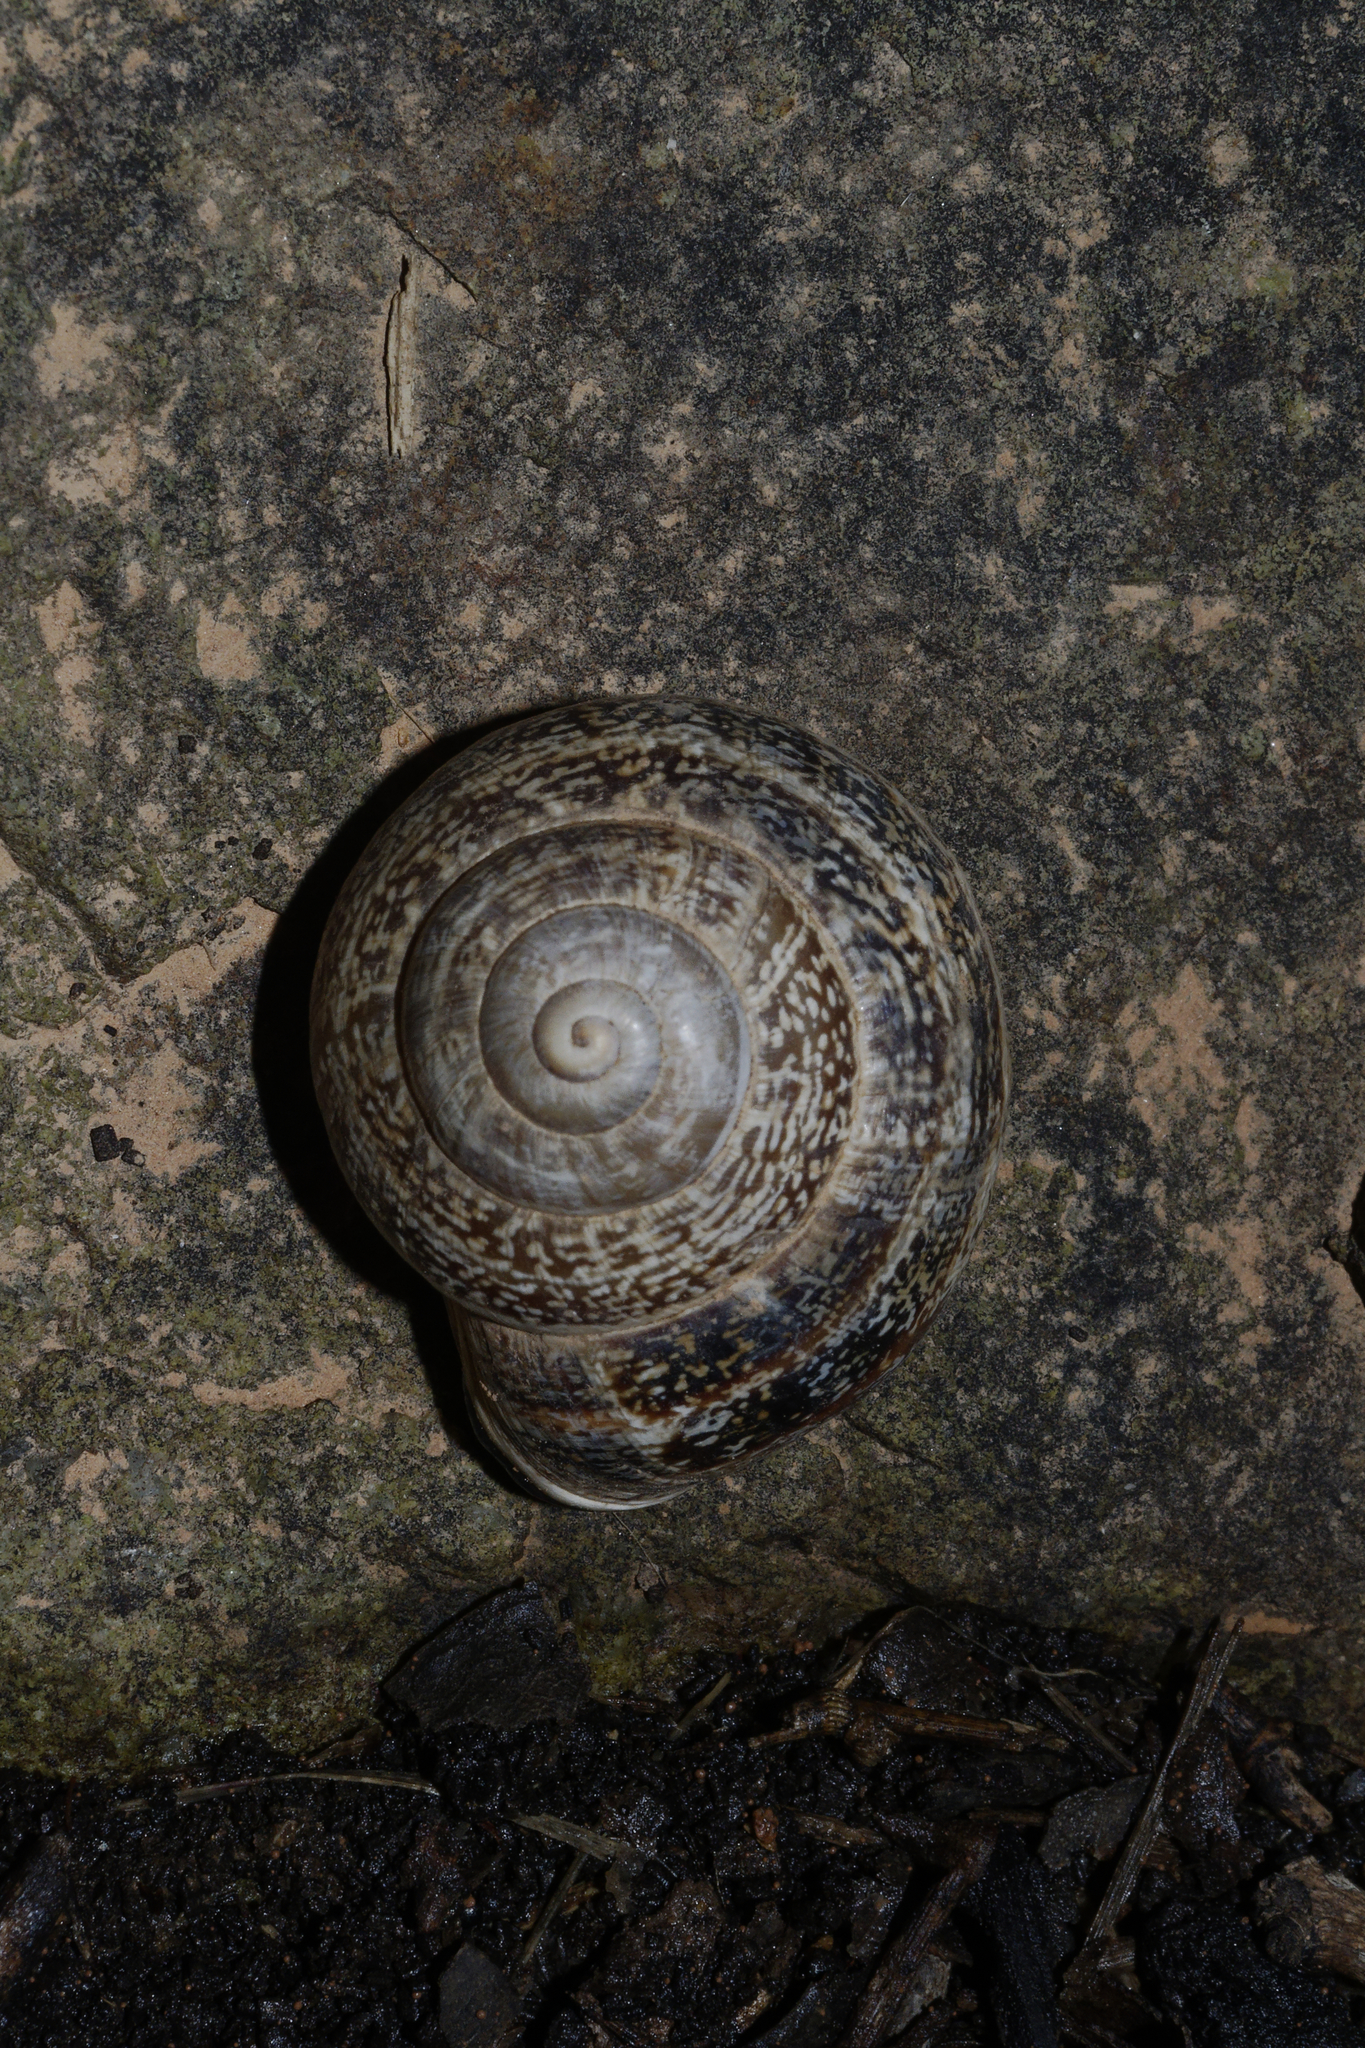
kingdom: Animalia
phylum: Mollusca
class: Gastropoda
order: Stylommatophora
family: Helicidae
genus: Otala
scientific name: Otala lactea
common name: Milk snail
